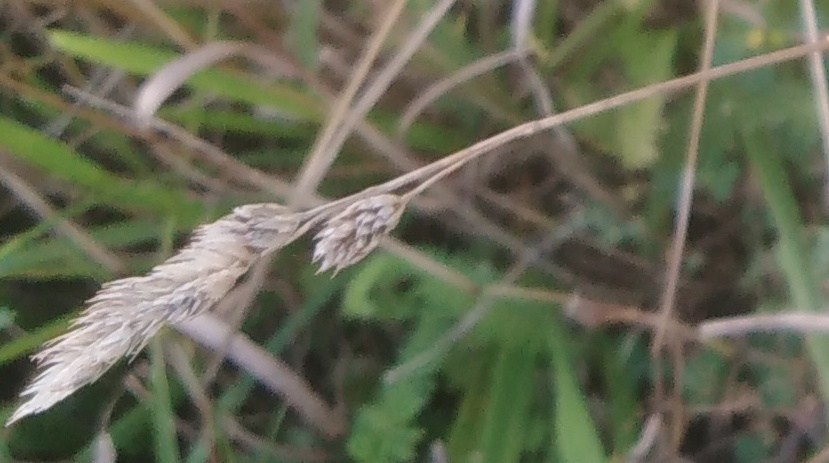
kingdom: Plantae
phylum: Tracheophyta
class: Liliopsida
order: Poales
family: Poaceae
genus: Dactylis
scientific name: Dactylis glomerata
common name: Orchardgrass
